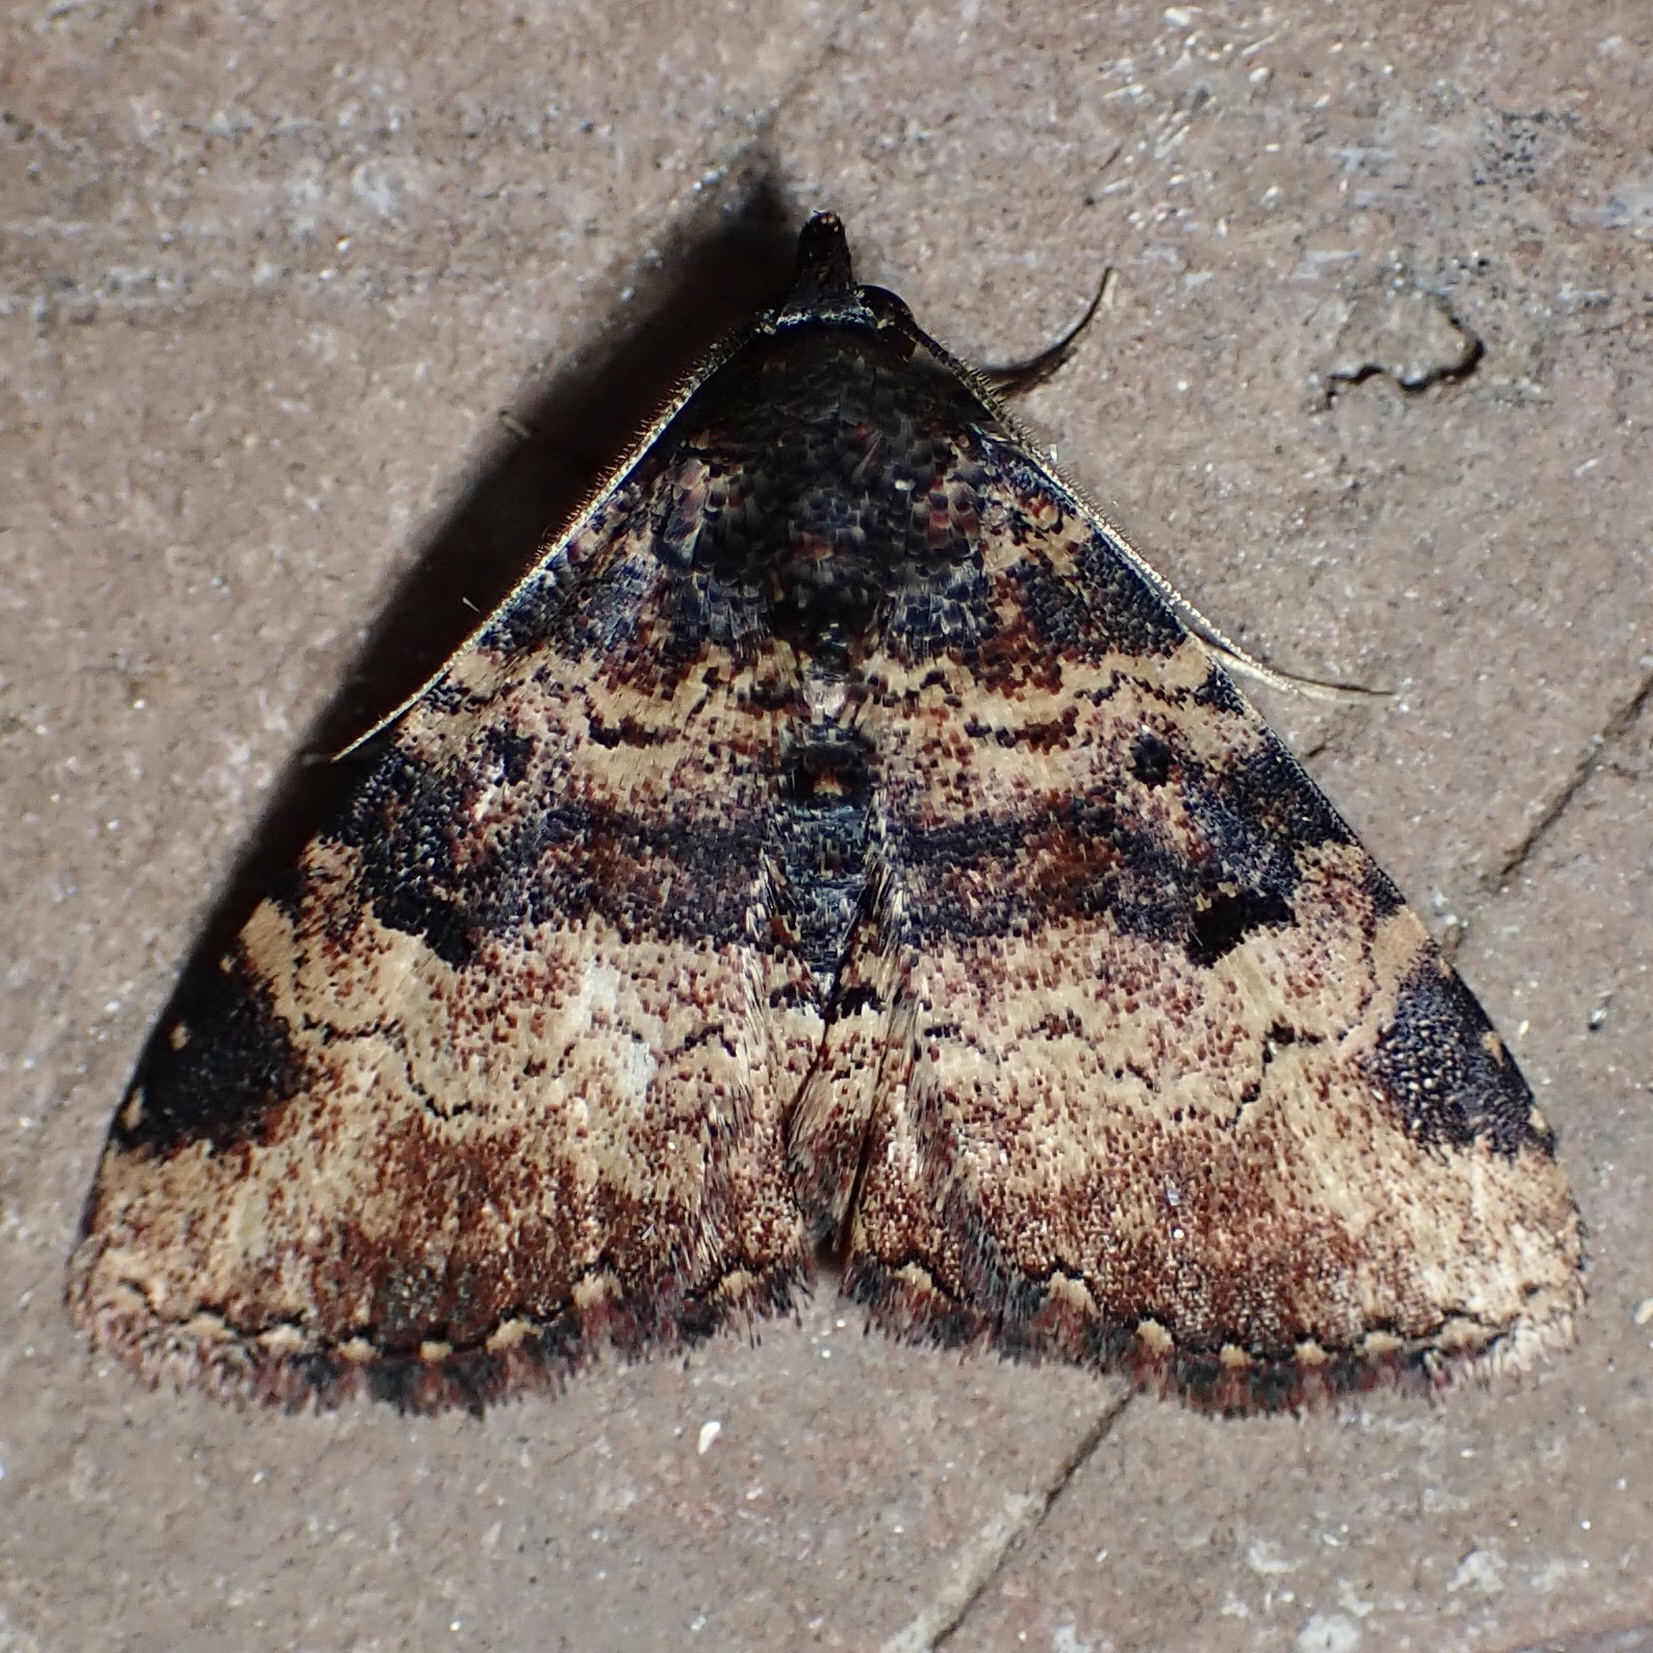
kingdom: Animalia
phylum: Arthropoda
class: Insecta
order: Lepidoptera
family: Erebidae
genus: Metalectra
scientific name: Metalectra edilis
